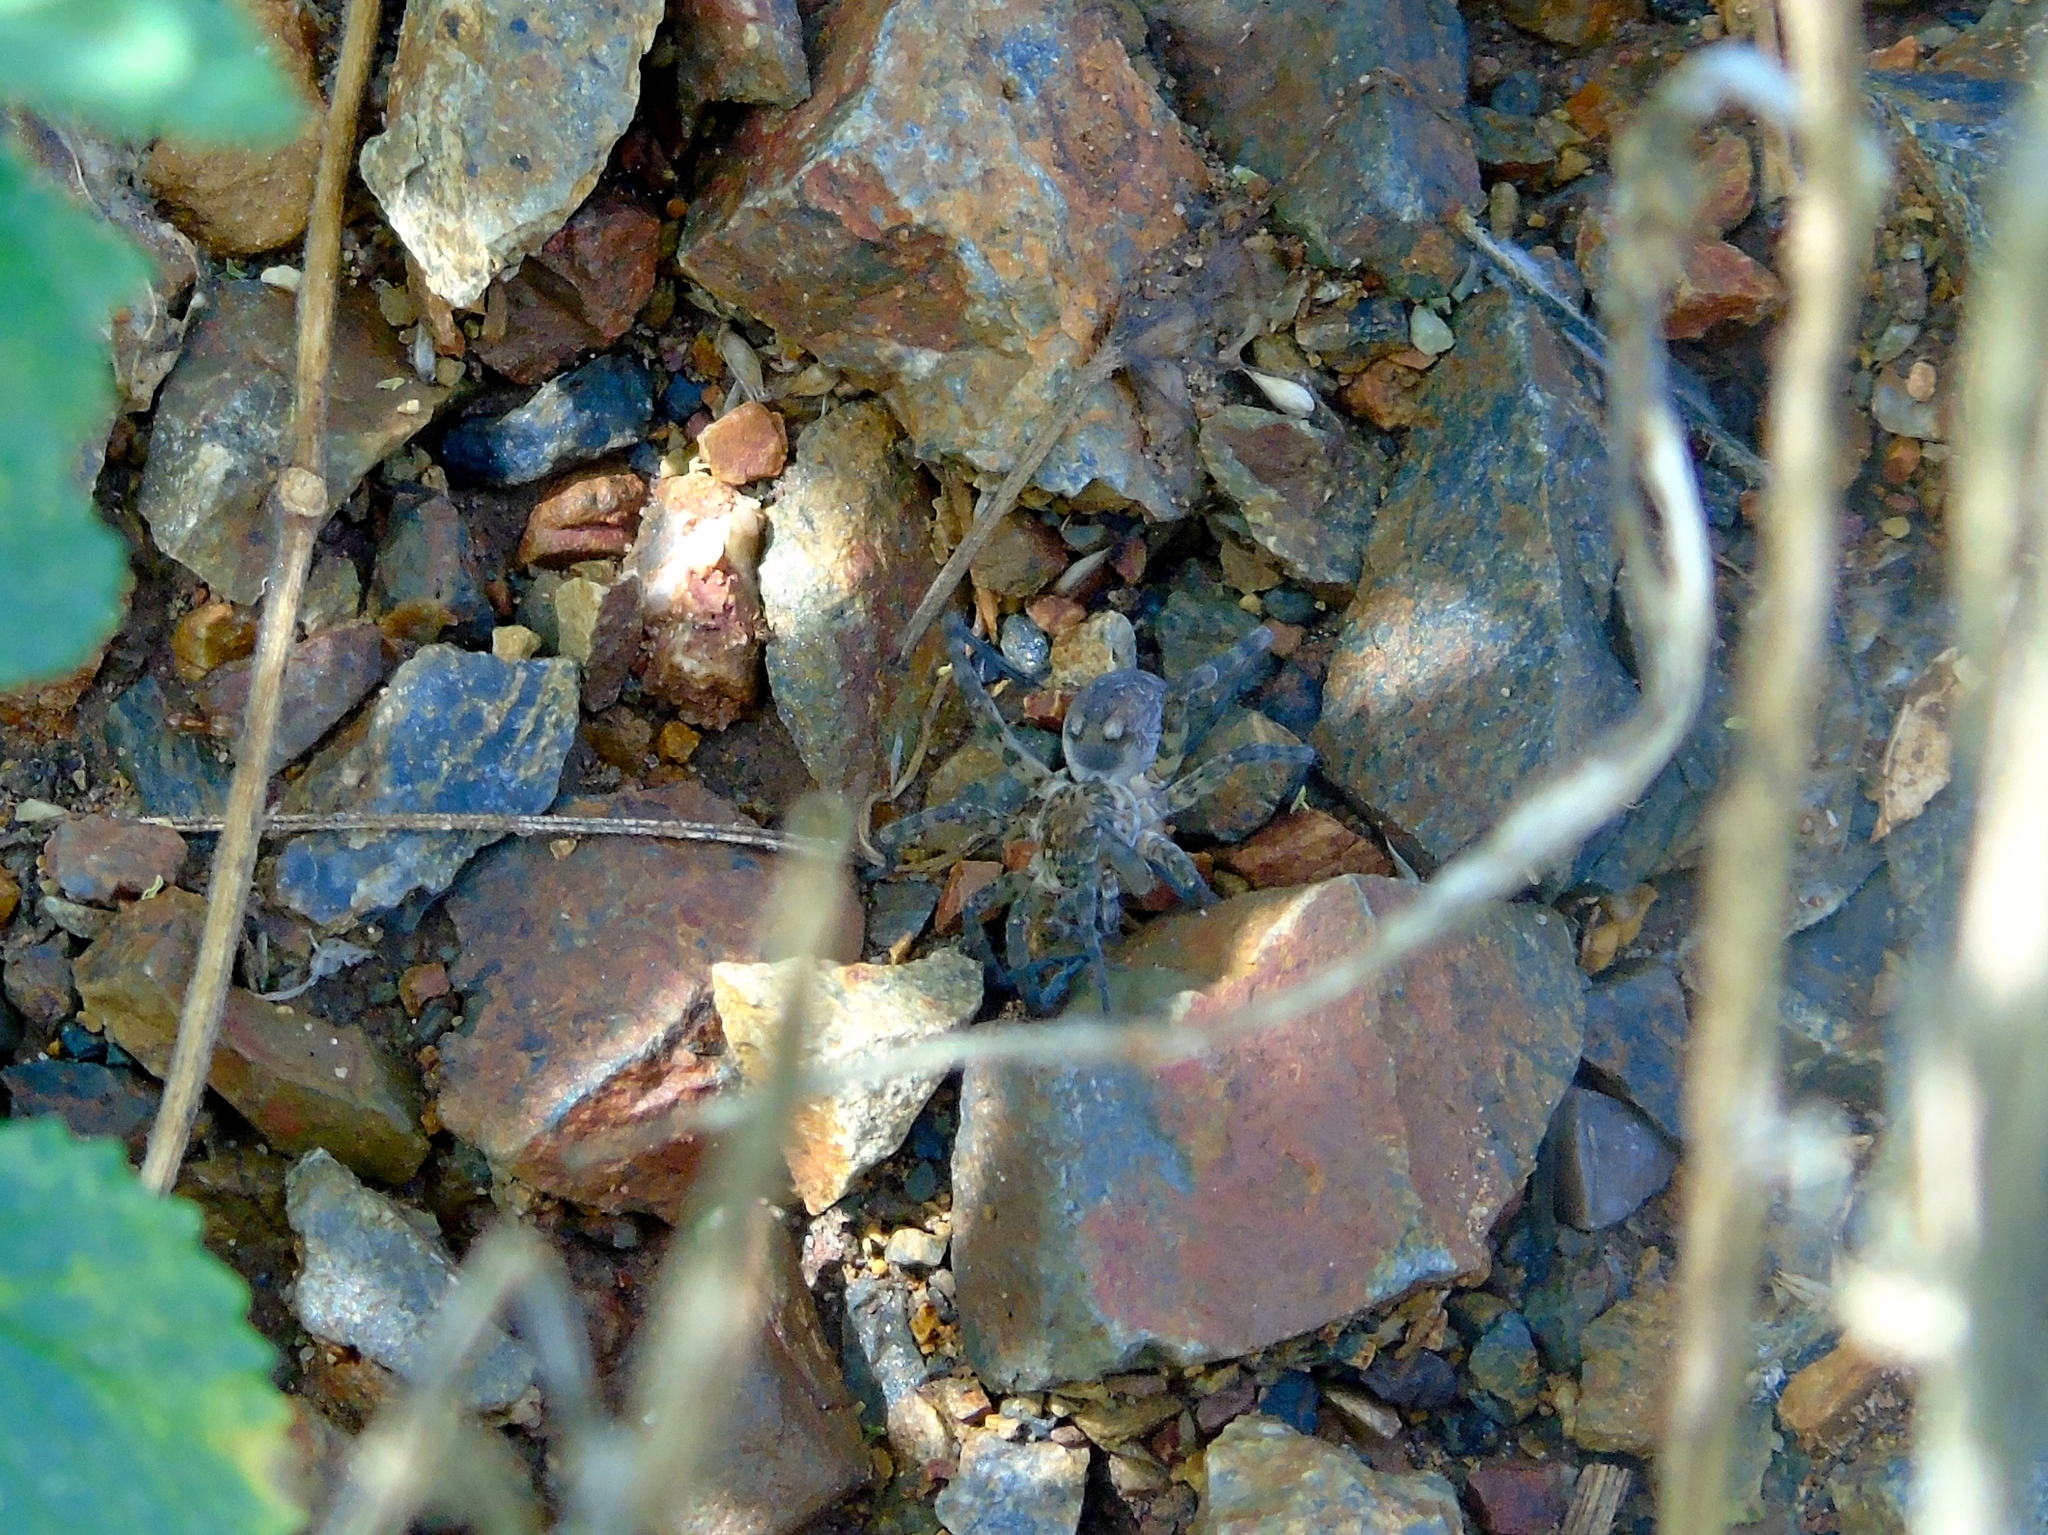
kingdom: Animalia
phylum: Arthropoda
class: Arachnida
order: Araneae
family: Lycosidae
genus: Arctosa
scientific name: Arctosa
